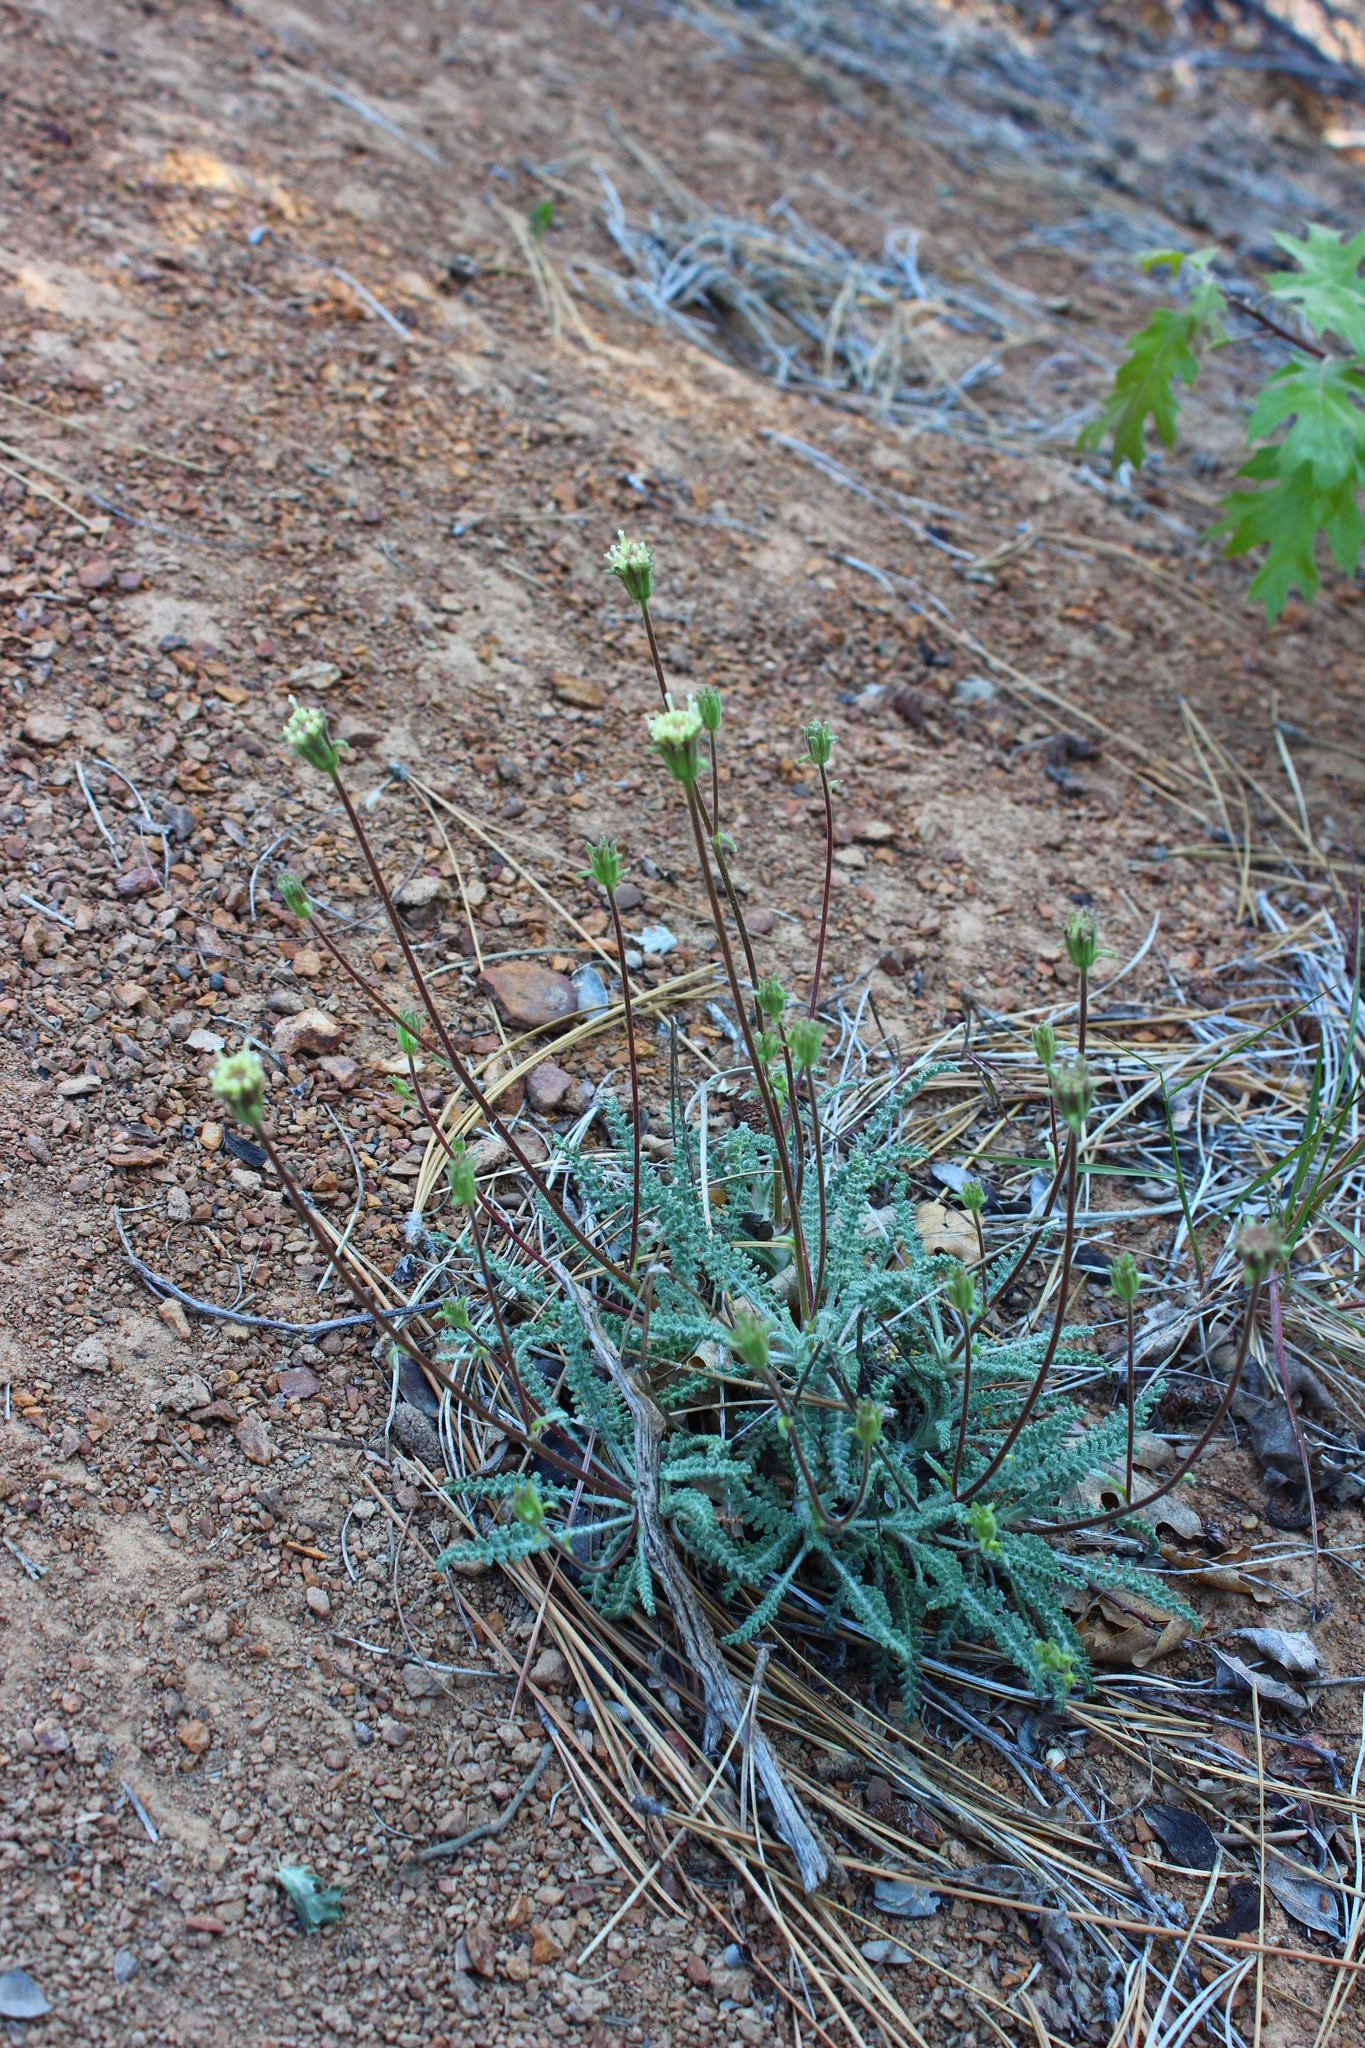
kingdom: Plantae
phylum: Tracheophyta
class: Magnoliopsida
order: Asterales
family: Asteraceae
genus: Chaenactis
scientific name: Chaenactis santolinoides
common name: Santolina pincushion
